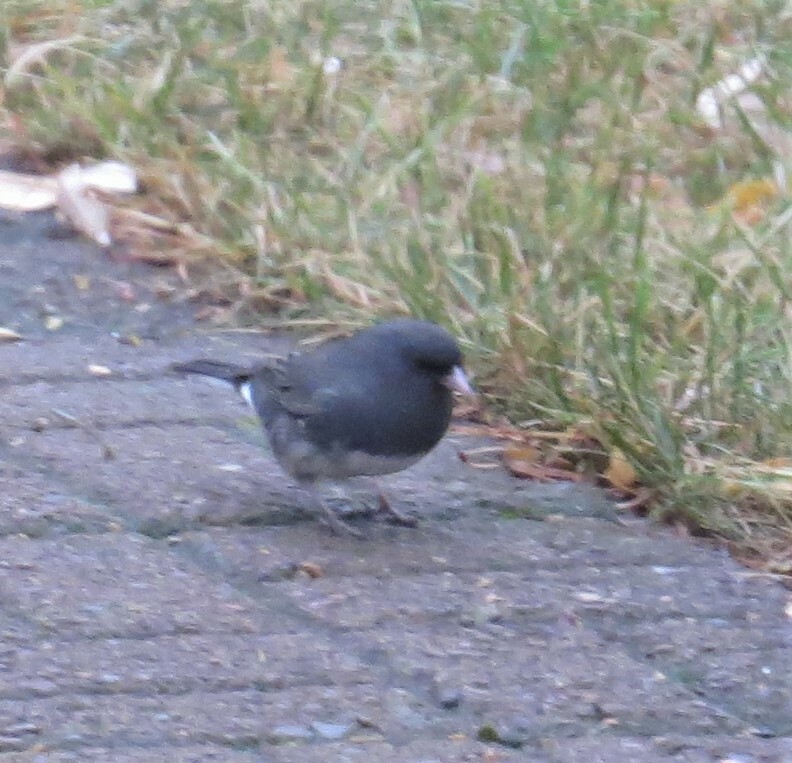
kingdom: Animalia
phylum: Chordata
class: Aves
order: Passeriformes
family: Passerellidae
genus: Junco
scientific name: Junco hyemalis
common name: Dark-eyed junco
